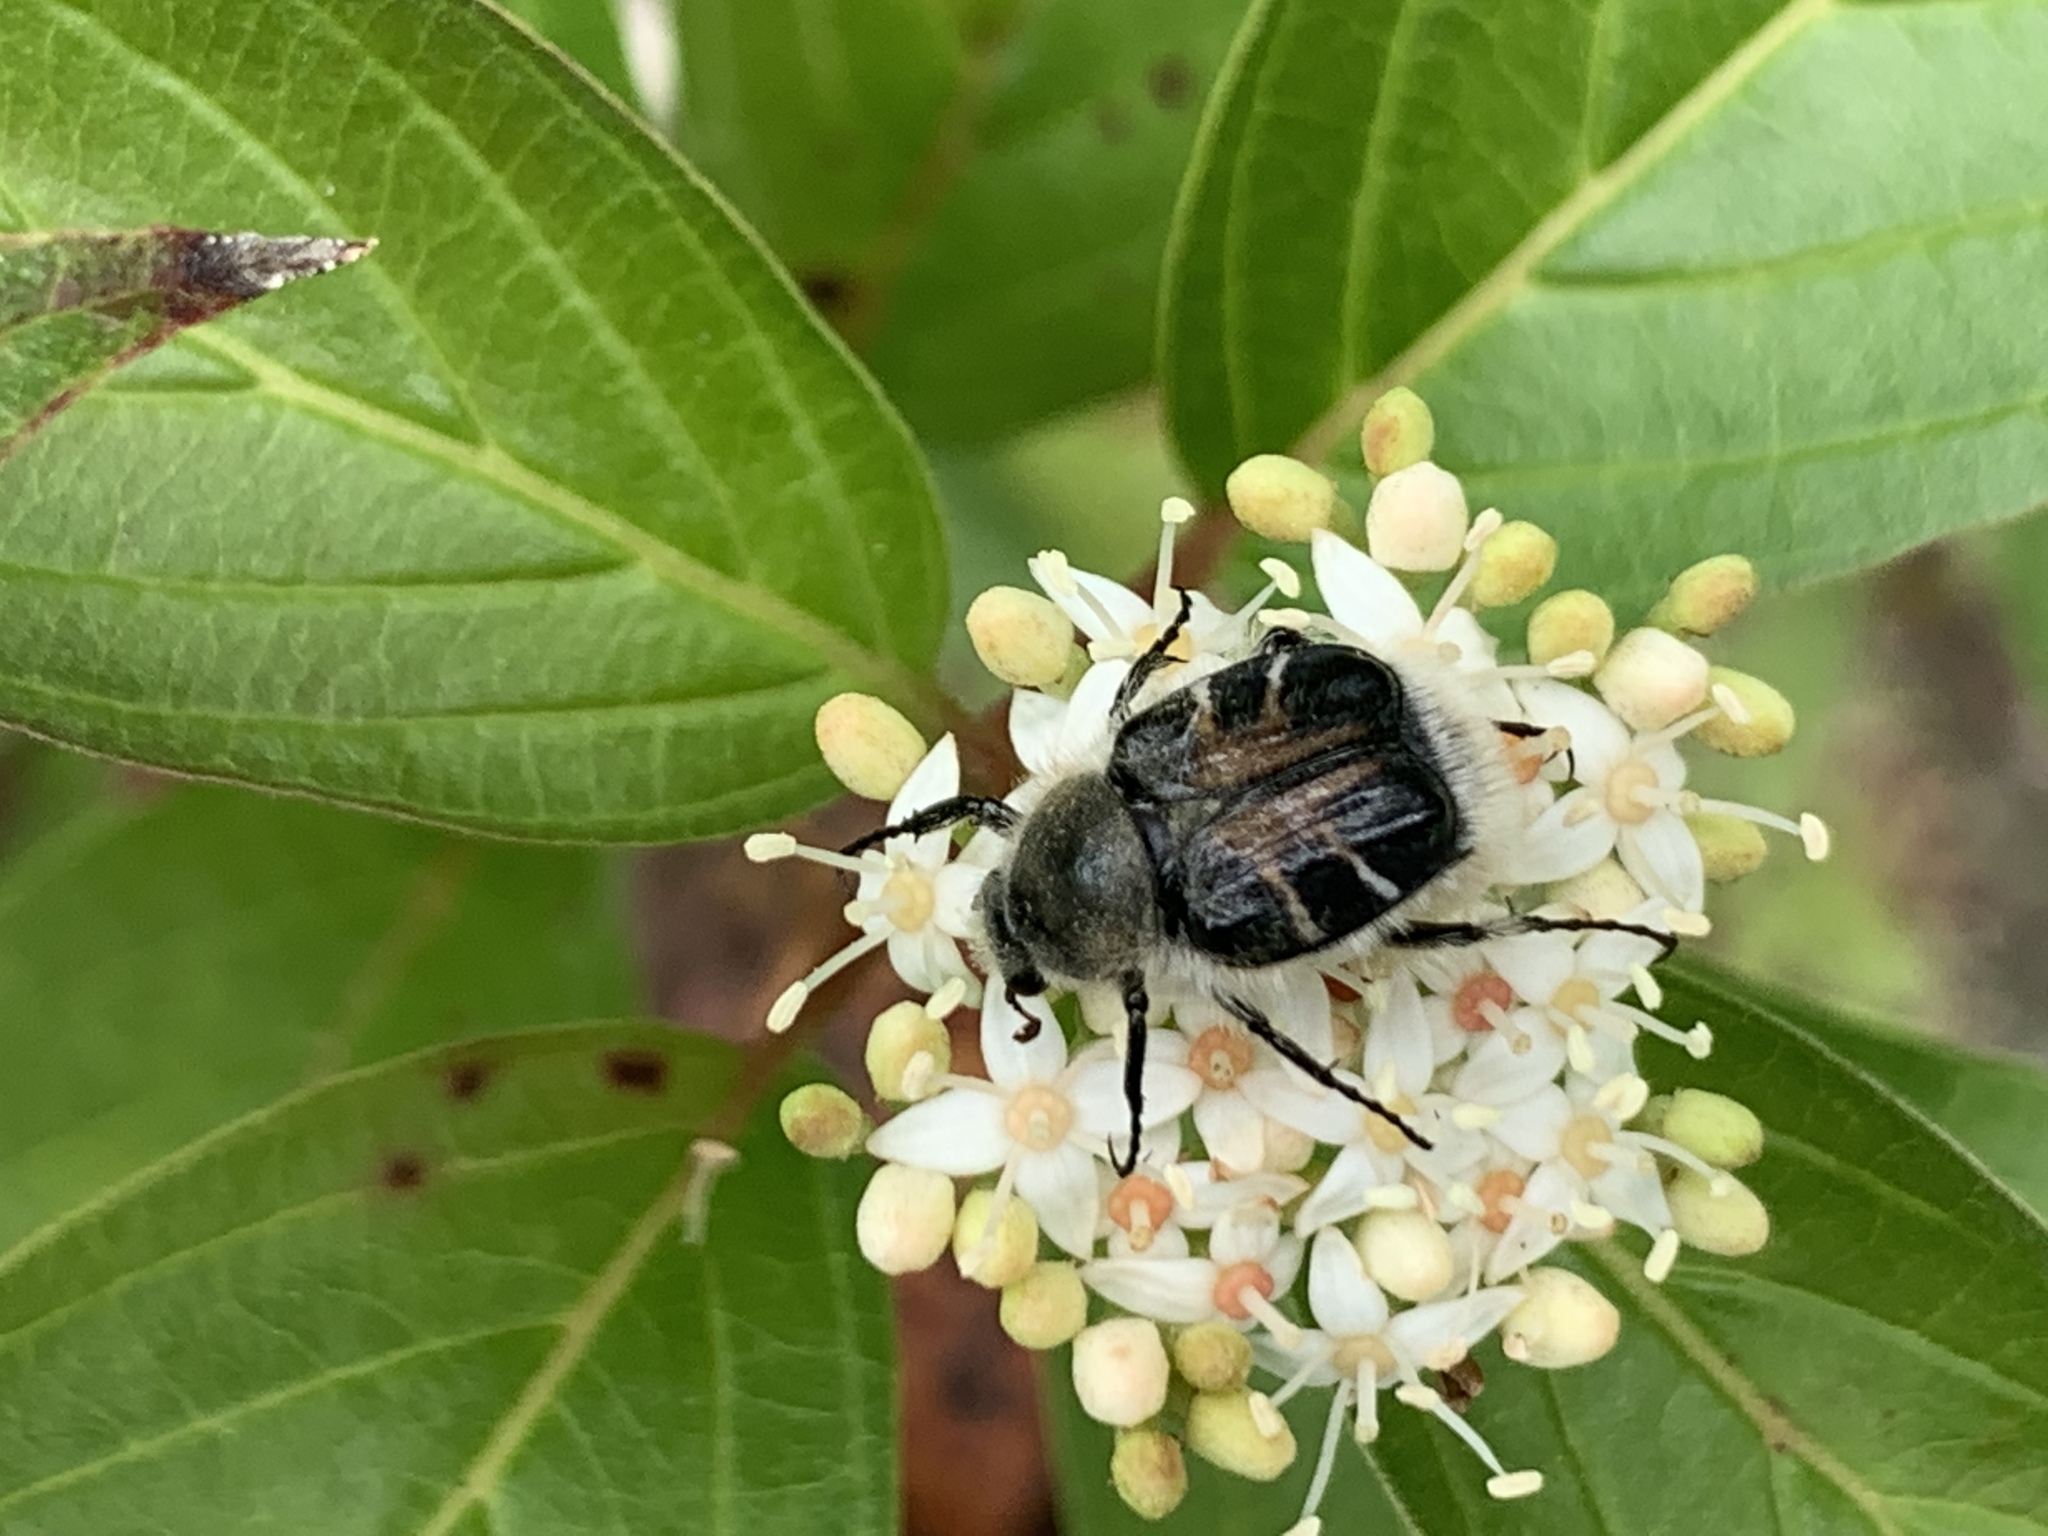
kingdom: Animalia
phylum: Arthropoda
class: Insecta
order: Coleoptera
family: Scarabaeidae
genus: Trichiotinus
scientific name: Trichiotinus assimilis
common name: Bee-mimic beetle
